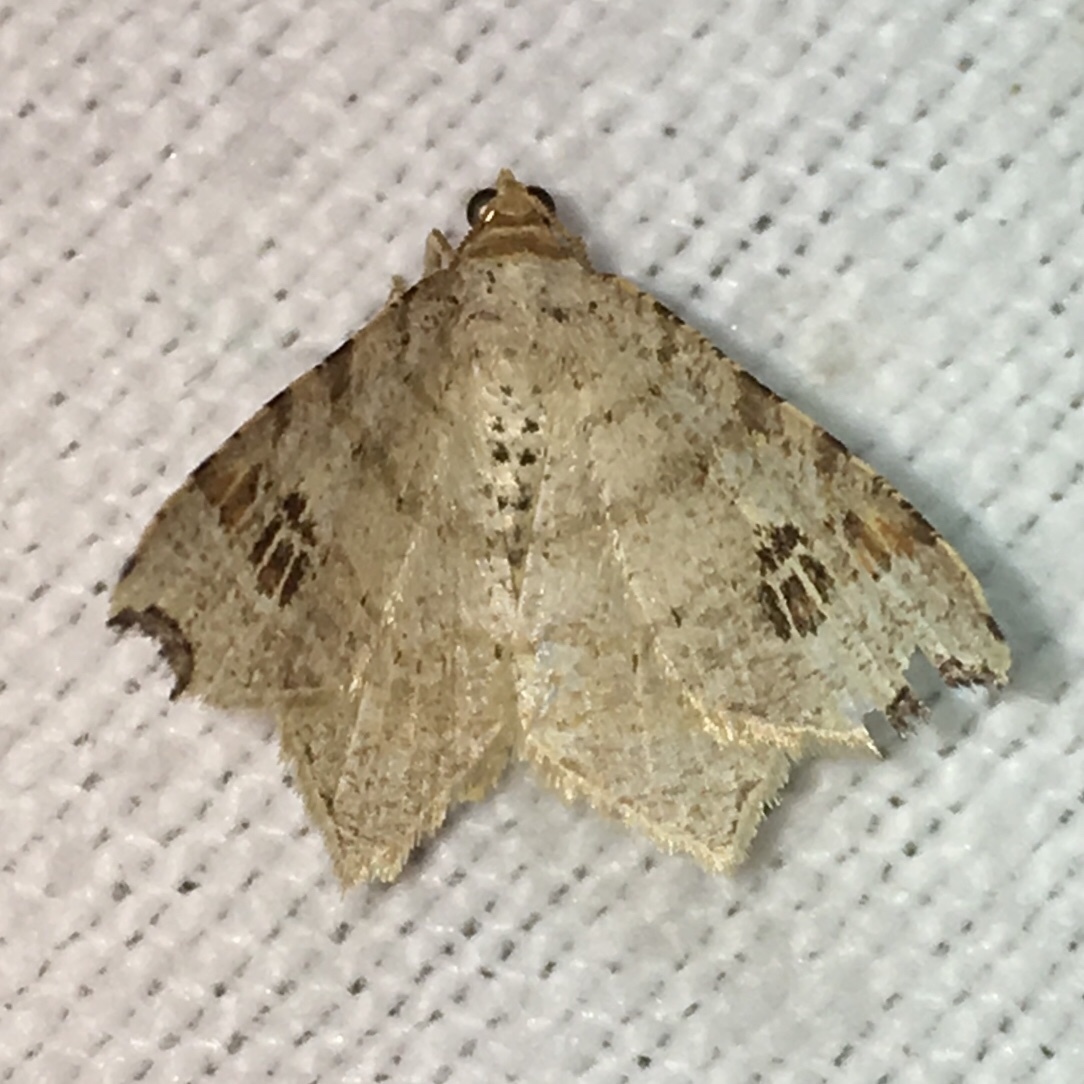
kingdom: Animalia
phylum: Arthropoda
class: Insecta
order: Lepidoptera
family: Geometridae
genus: Macaria
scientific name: Macaria aemulataria
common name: Common angle
